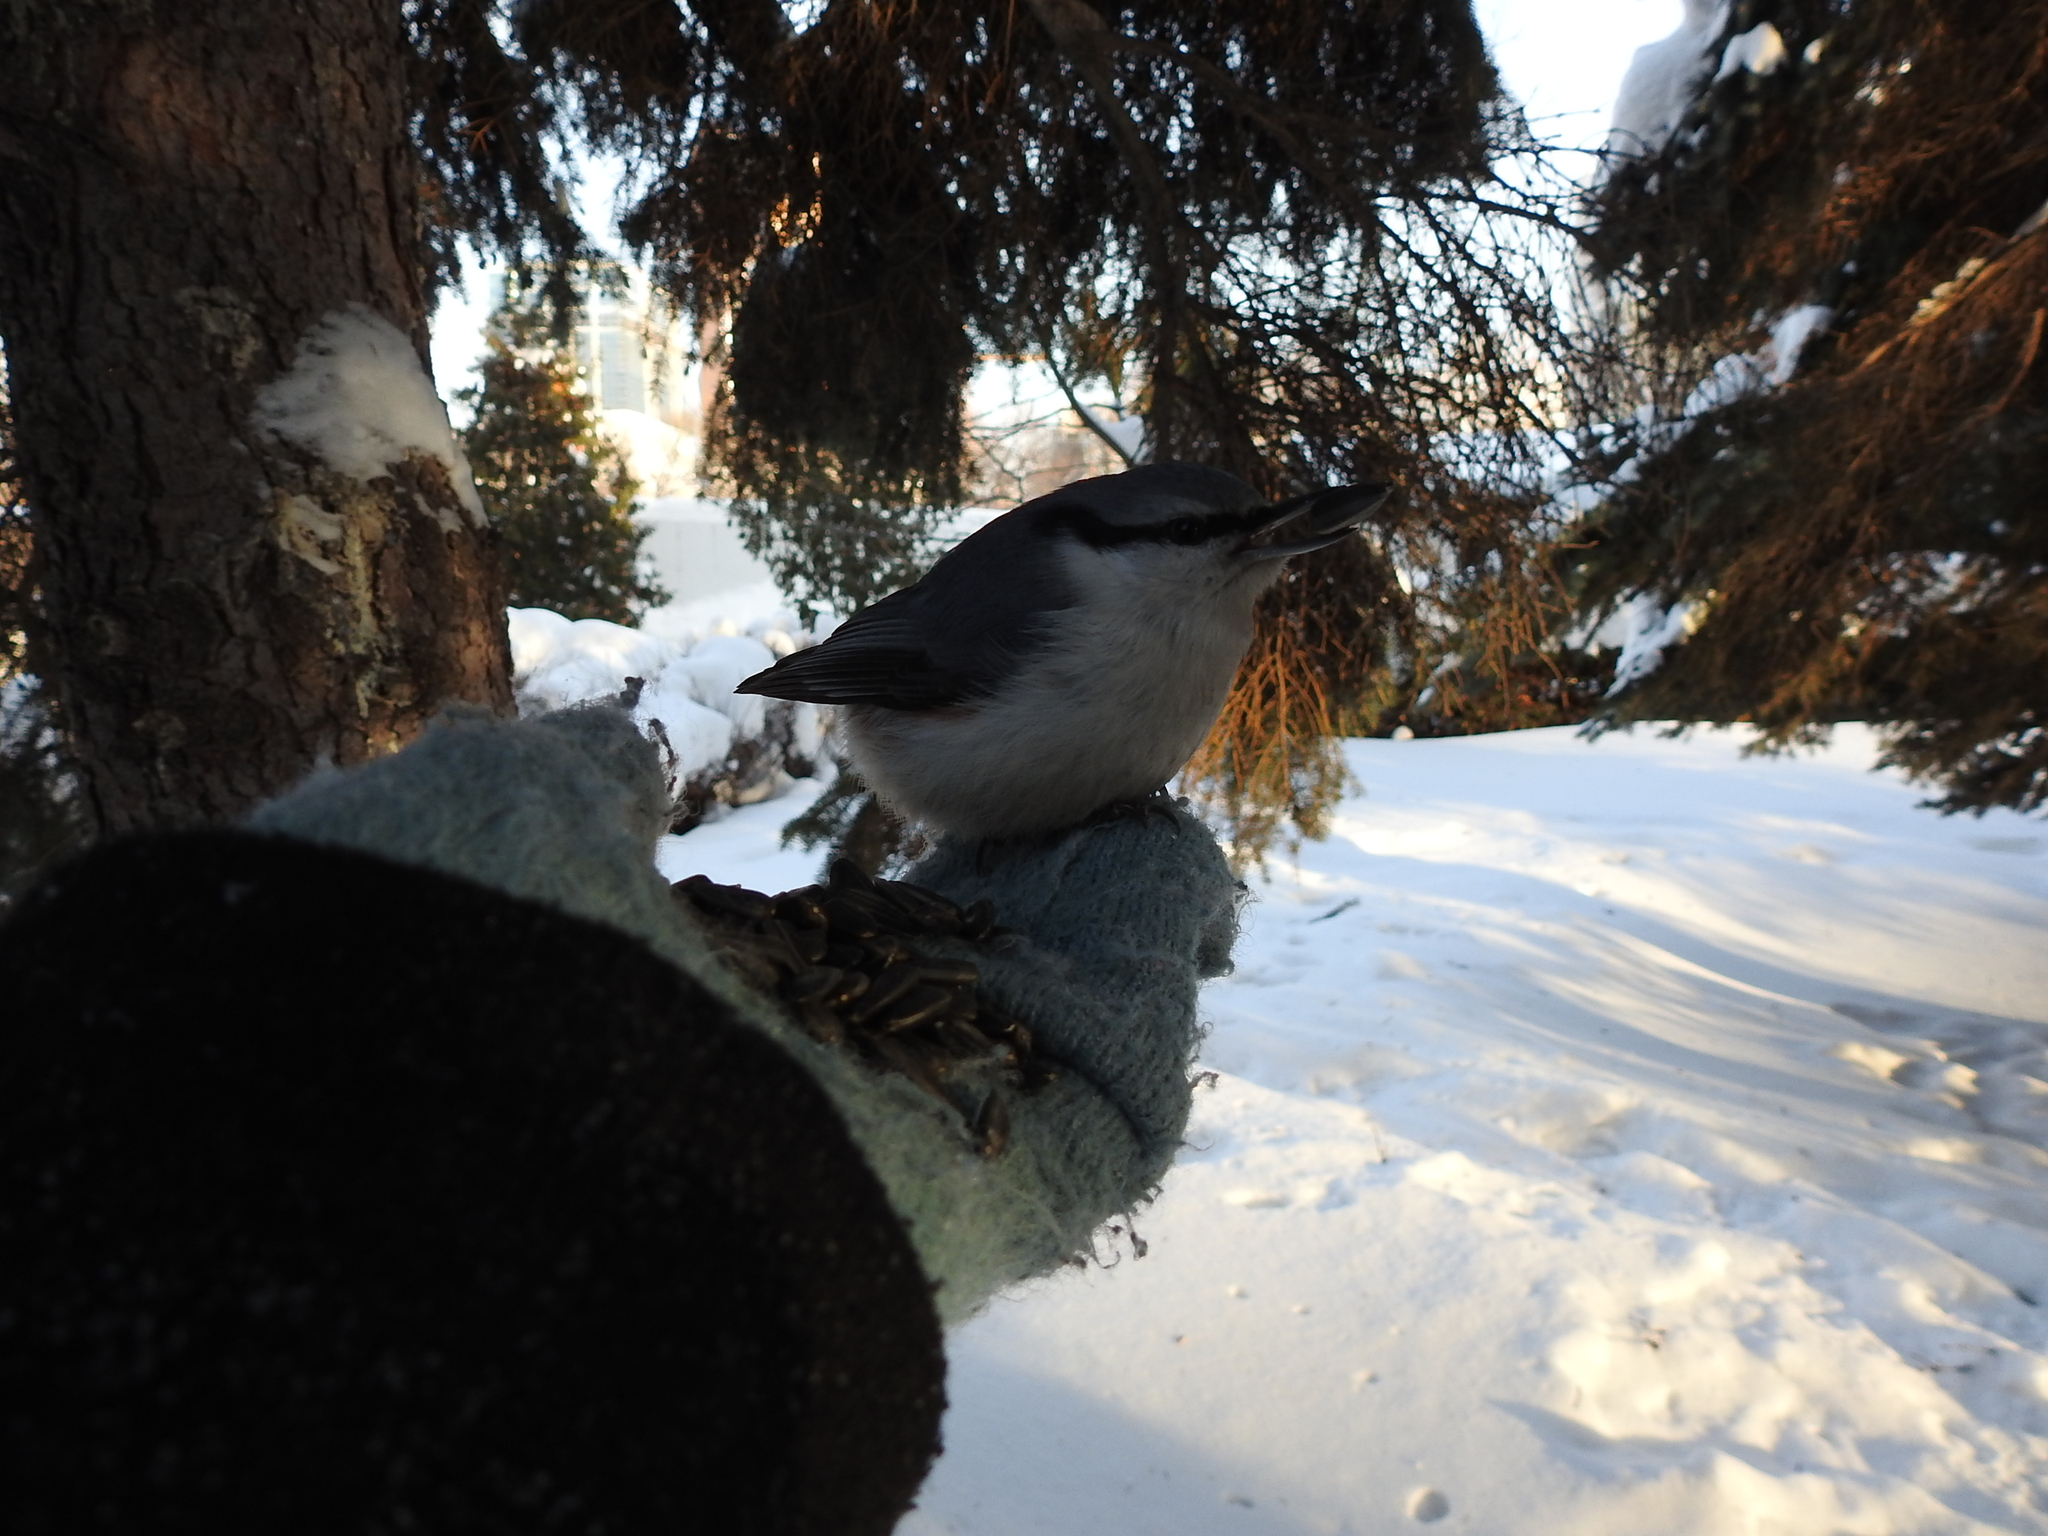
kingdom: Animalia
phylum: Chordata
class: Aves
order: Passeriformes
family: Sittidae
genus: Sitta
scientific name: Sitta europaea
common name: Eurasian nuthatch
